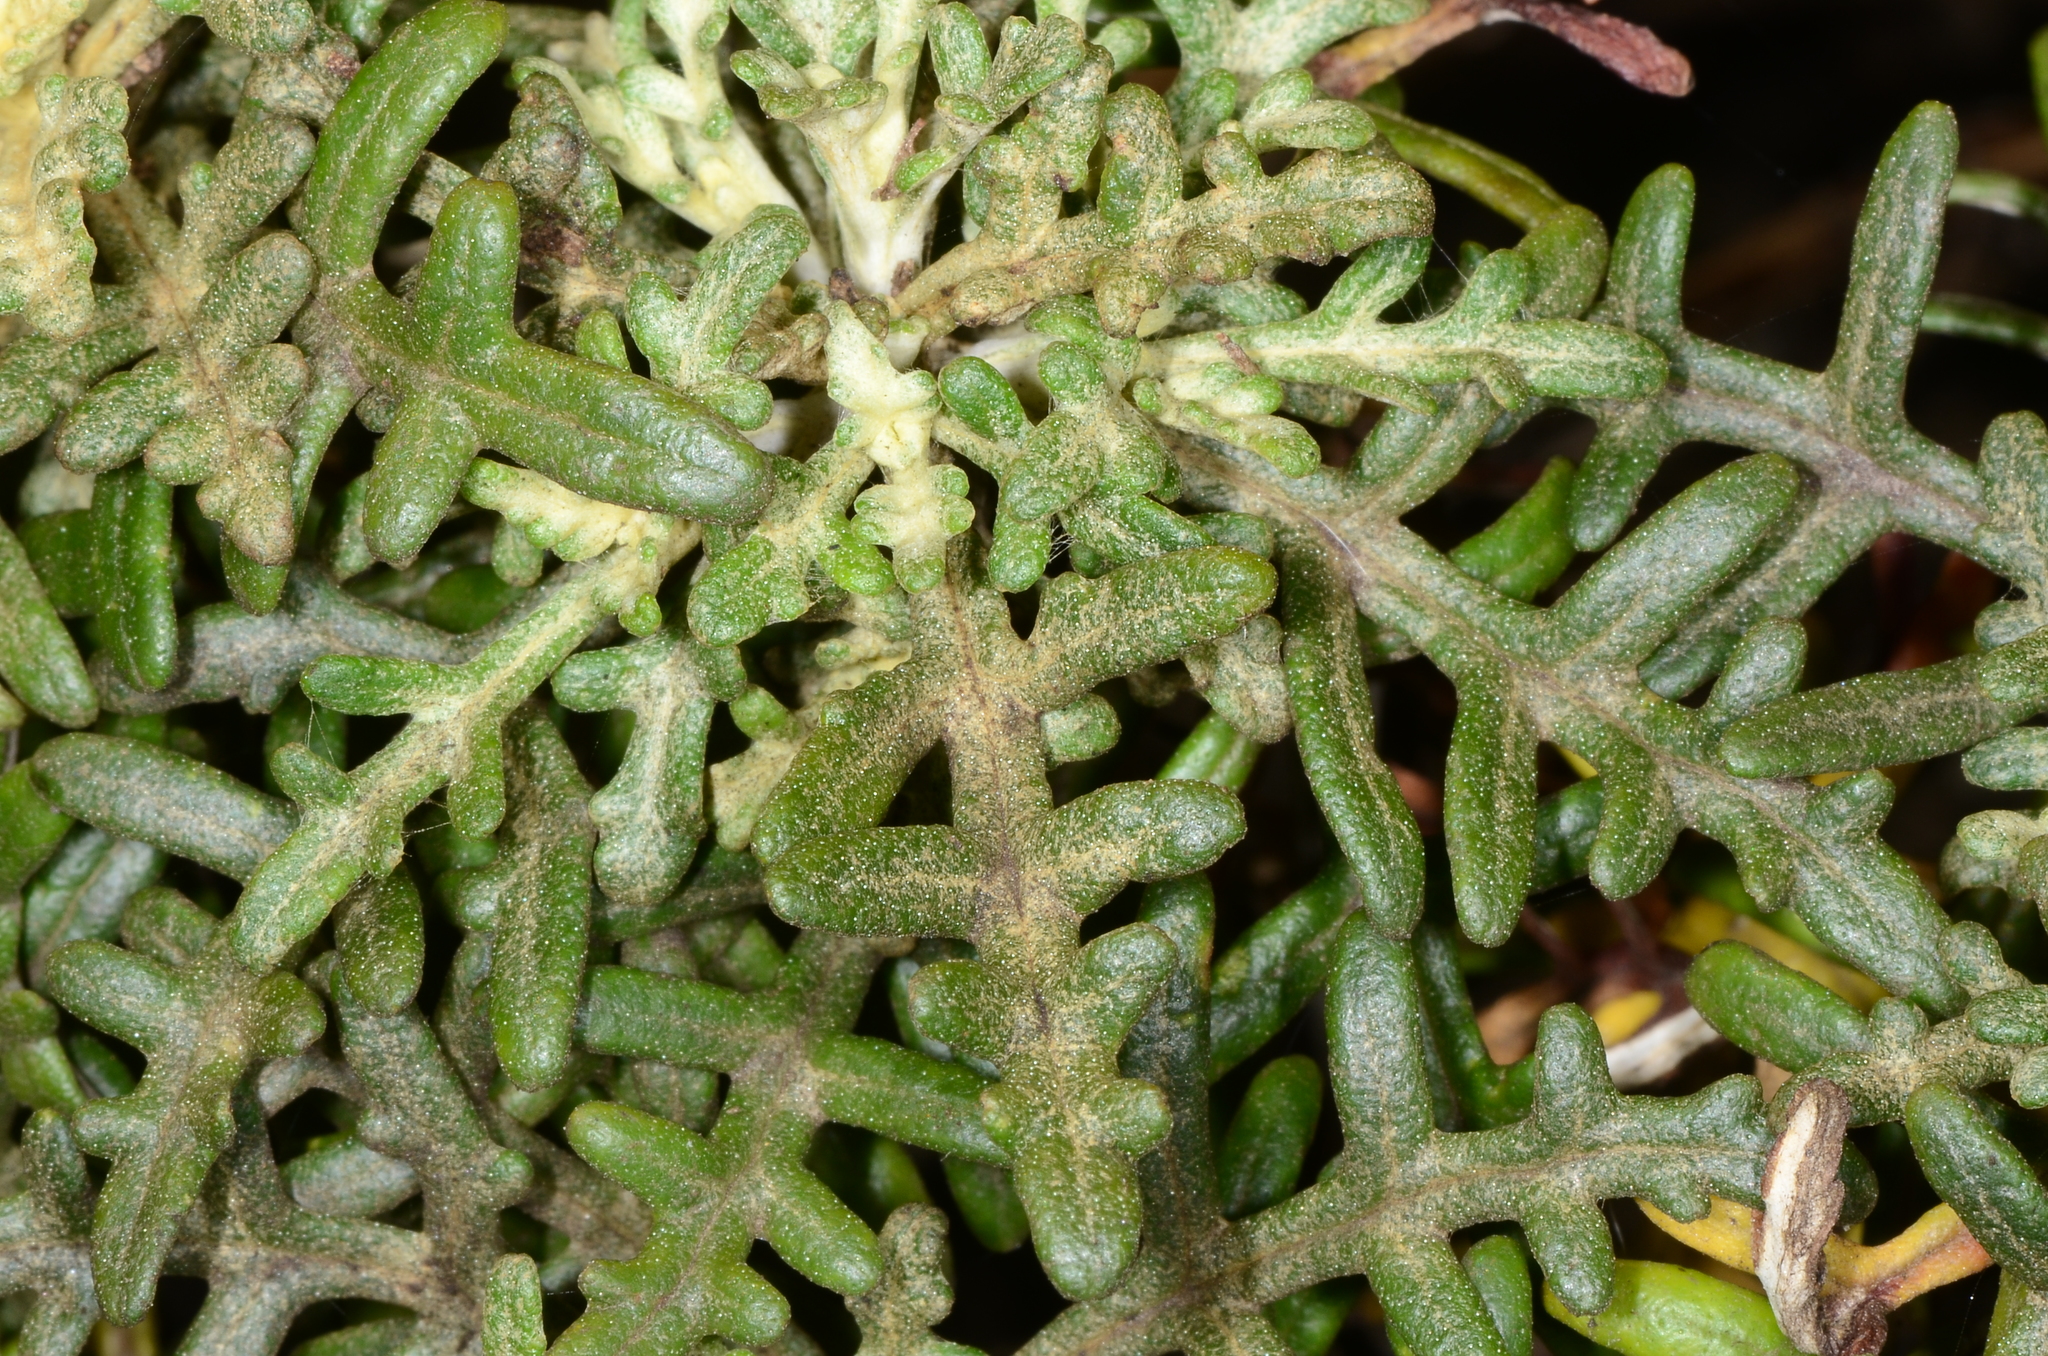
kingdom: Plantae
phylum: Tracheophyta
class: Magnoliopsida
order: Asterales
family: Asteraceae
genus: Eriophyllum
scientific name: Eriophyllum staechadifolium
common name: Lizardtail
